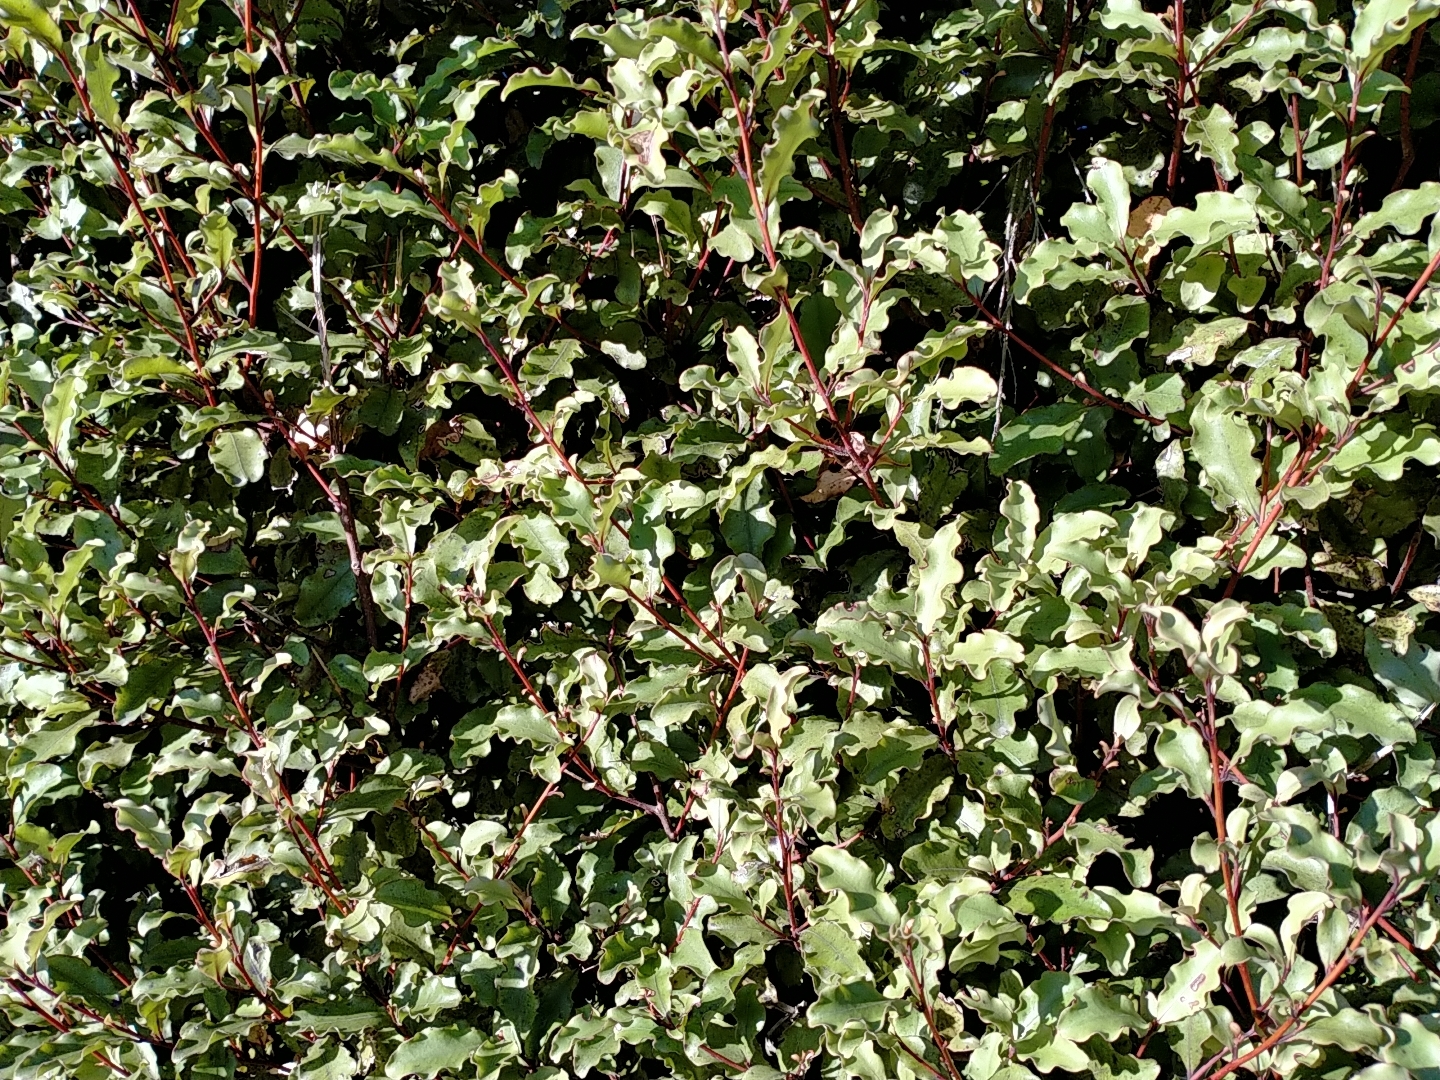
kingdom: Plantae
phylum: Tracheophyta
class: Magnoliopsida
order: Ericales
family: Primulaceae
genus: Myrsine
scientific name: Myrsine australis
